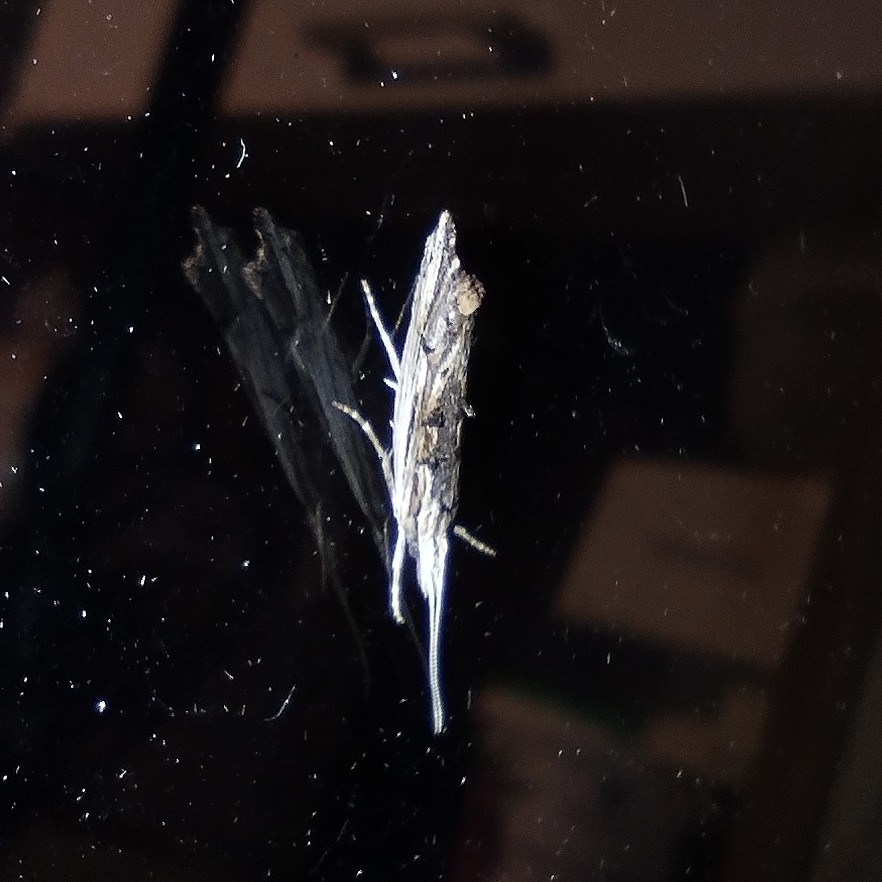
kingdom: Animalia
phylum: Arthropoda
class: Insecta
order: Lepidoptera
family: Ypsolophidae
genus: Ypsolopha
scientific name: Ypsolopha scabrella
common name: Wainscot smudge
